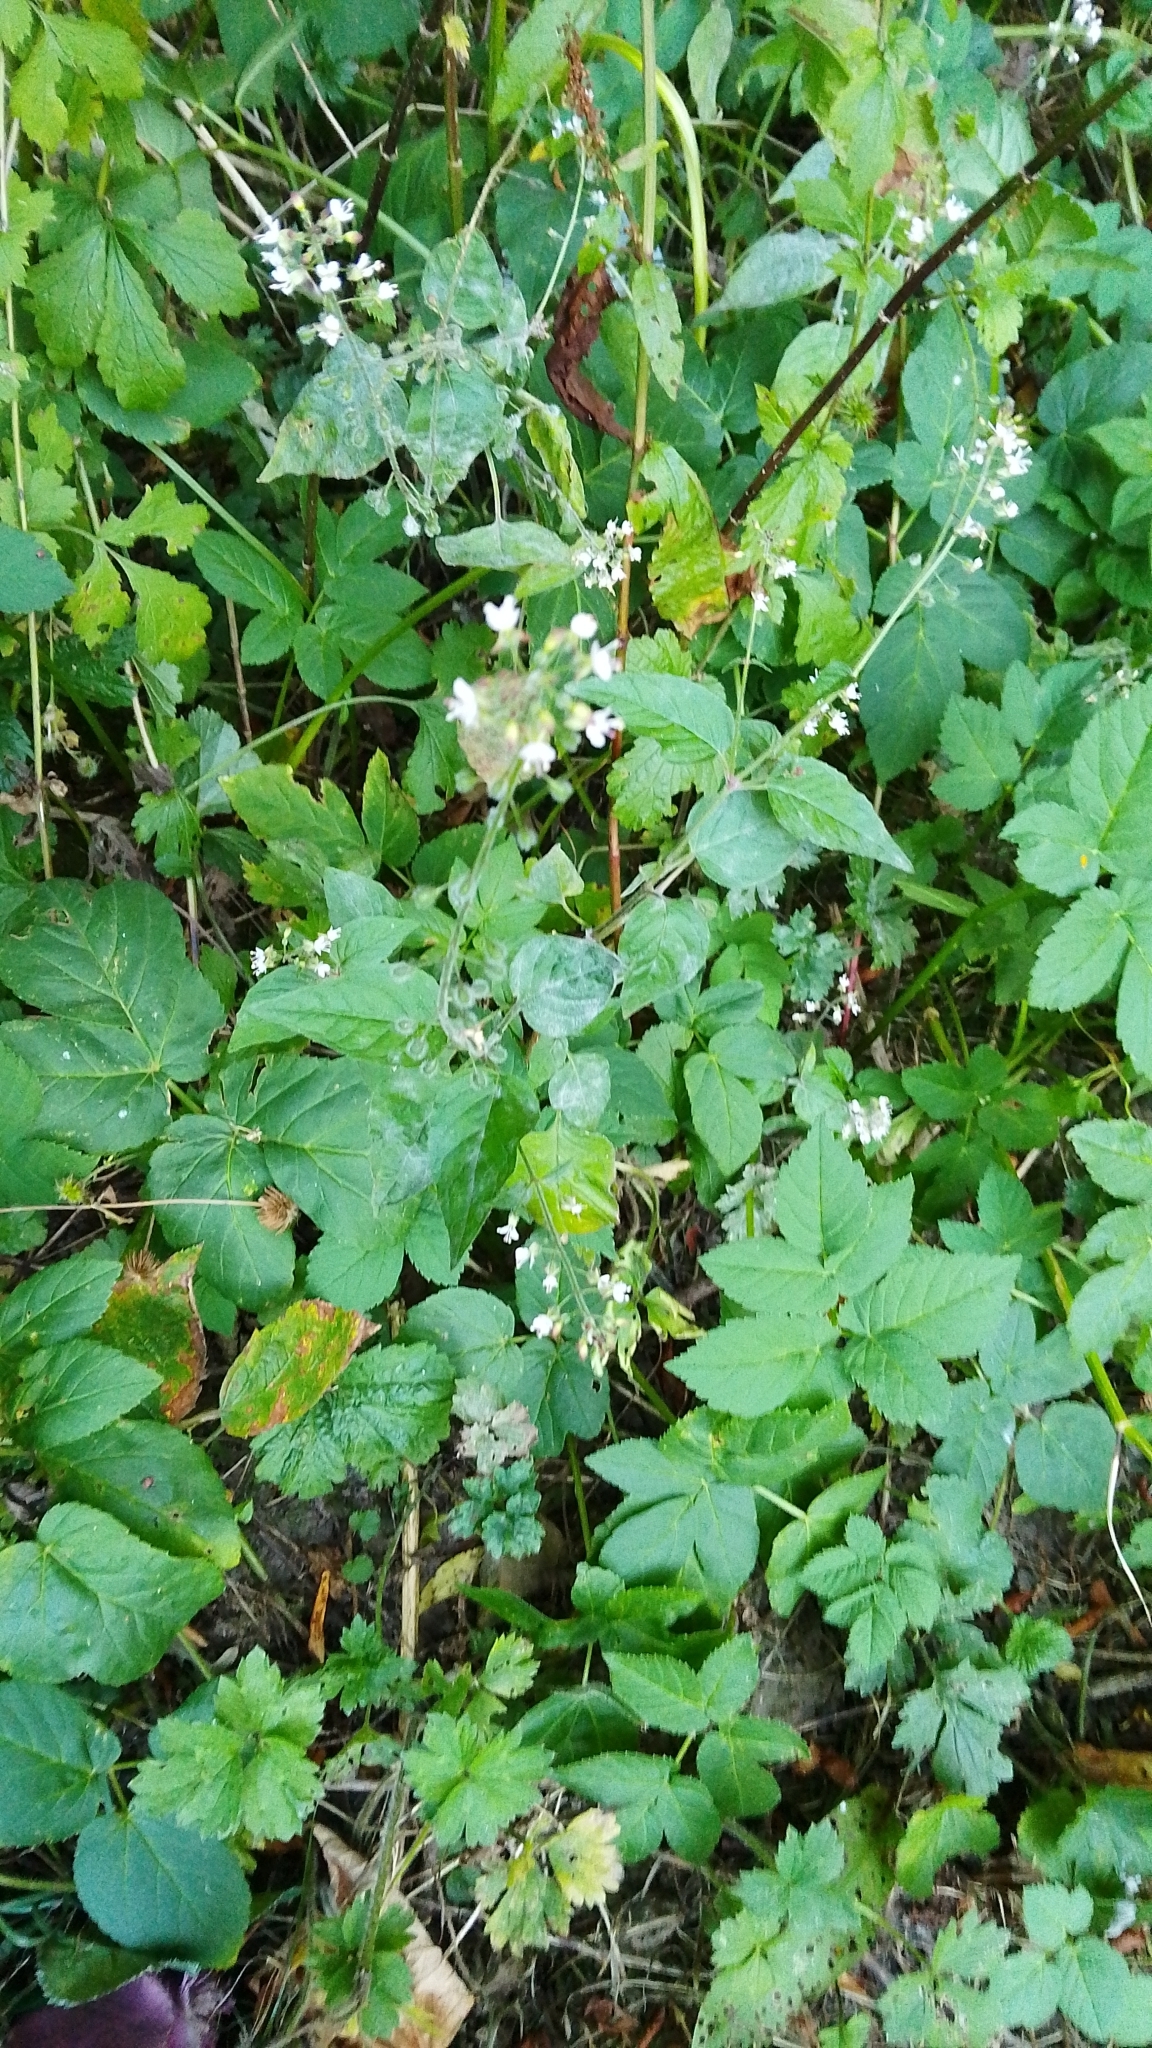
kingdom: Plantae
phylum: Tracheophyta
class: Magnoliopsida
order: Myrtales
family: Onagraceae
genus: Circaea
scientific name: Circaea lutetiana
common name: Enchanter's-nightshade
